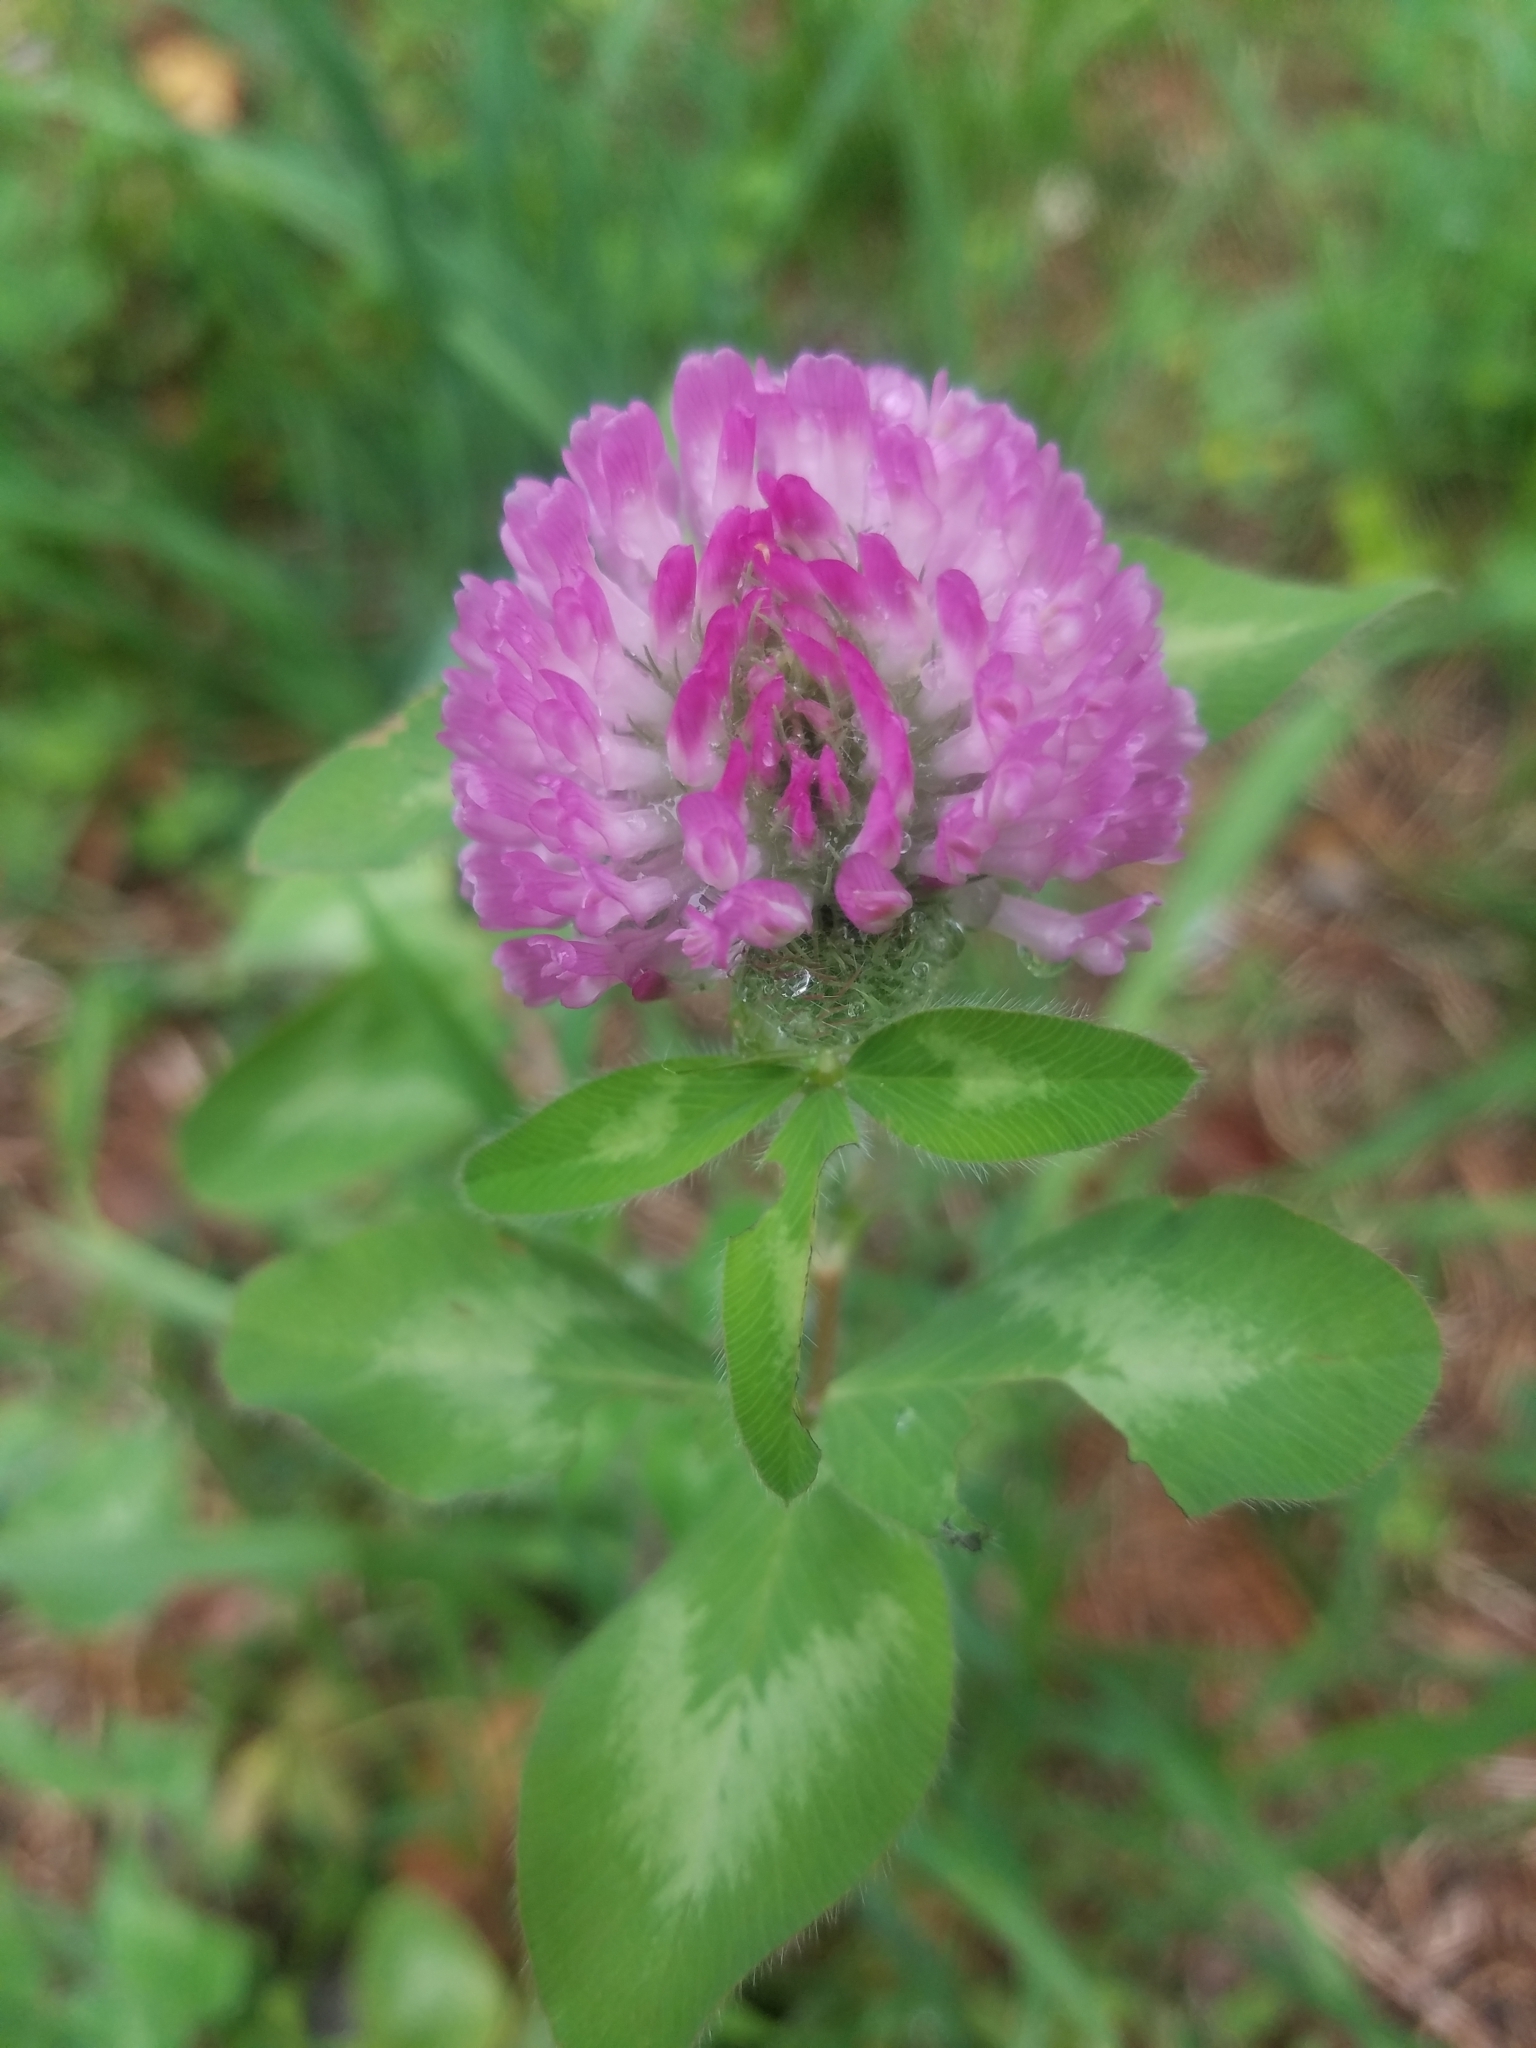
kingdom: Plantae
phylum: Tracheophyta
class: Magnoliopsida
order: Fabales
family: Fabaceae
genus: Trifolium
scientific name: Trifolium pratense
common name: Red clover
